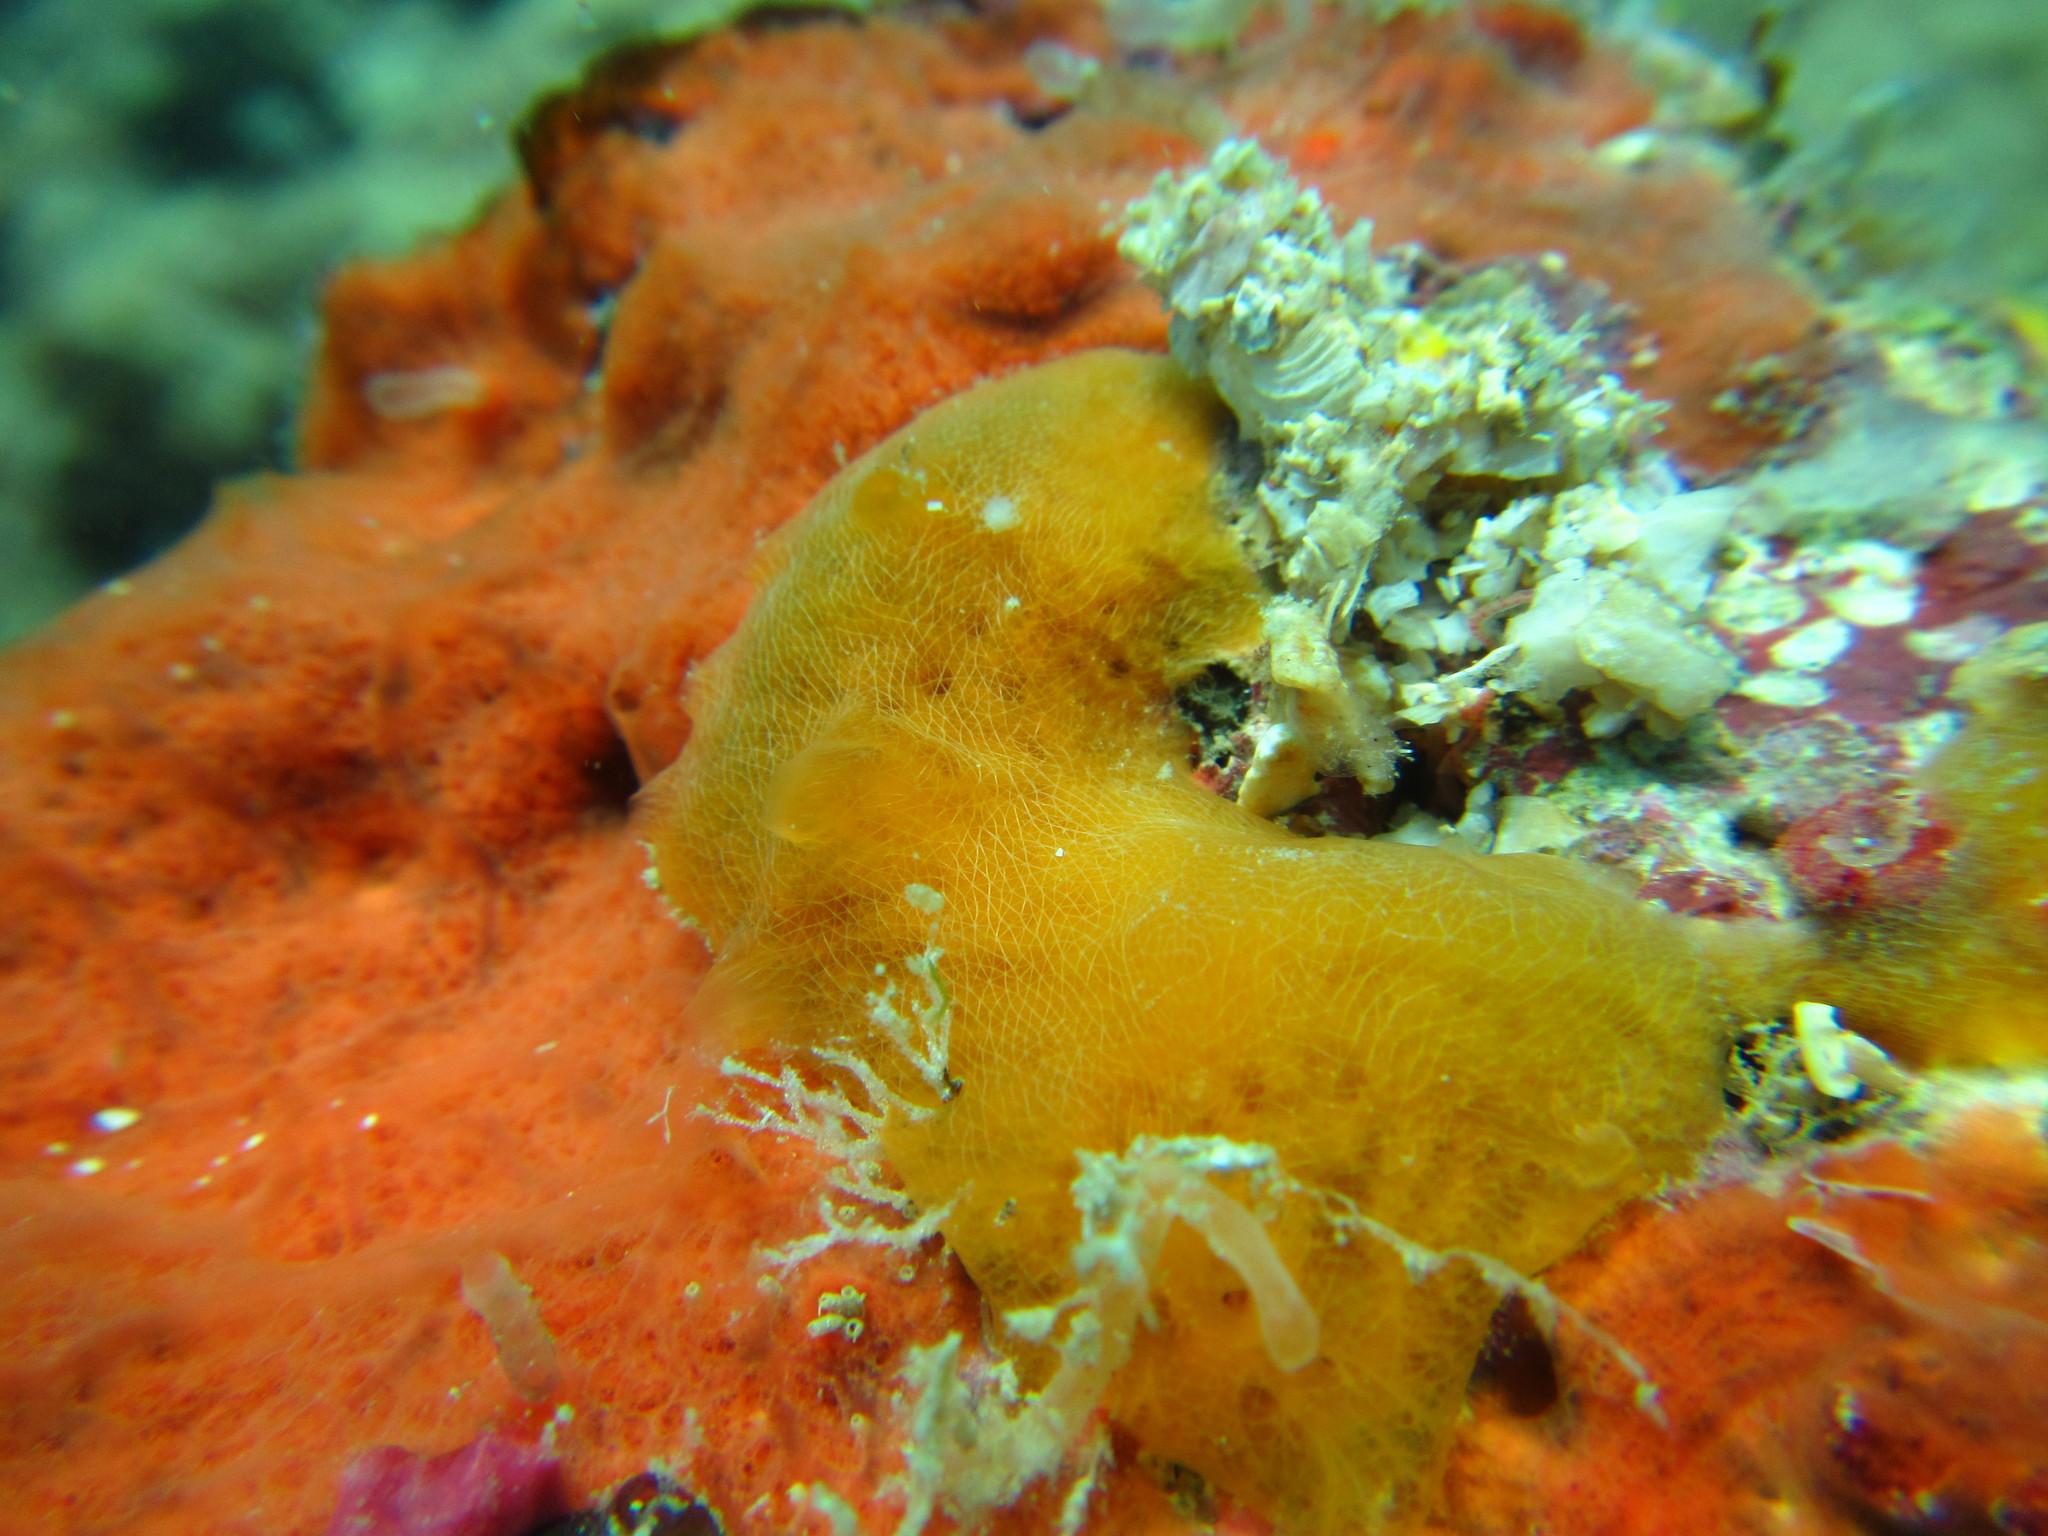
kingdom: Animalia
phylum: Porifera
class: Demospongiae
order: Poecilosclerida
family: Mycalidae
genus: Mycale
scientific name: Mycale diversisigmata
